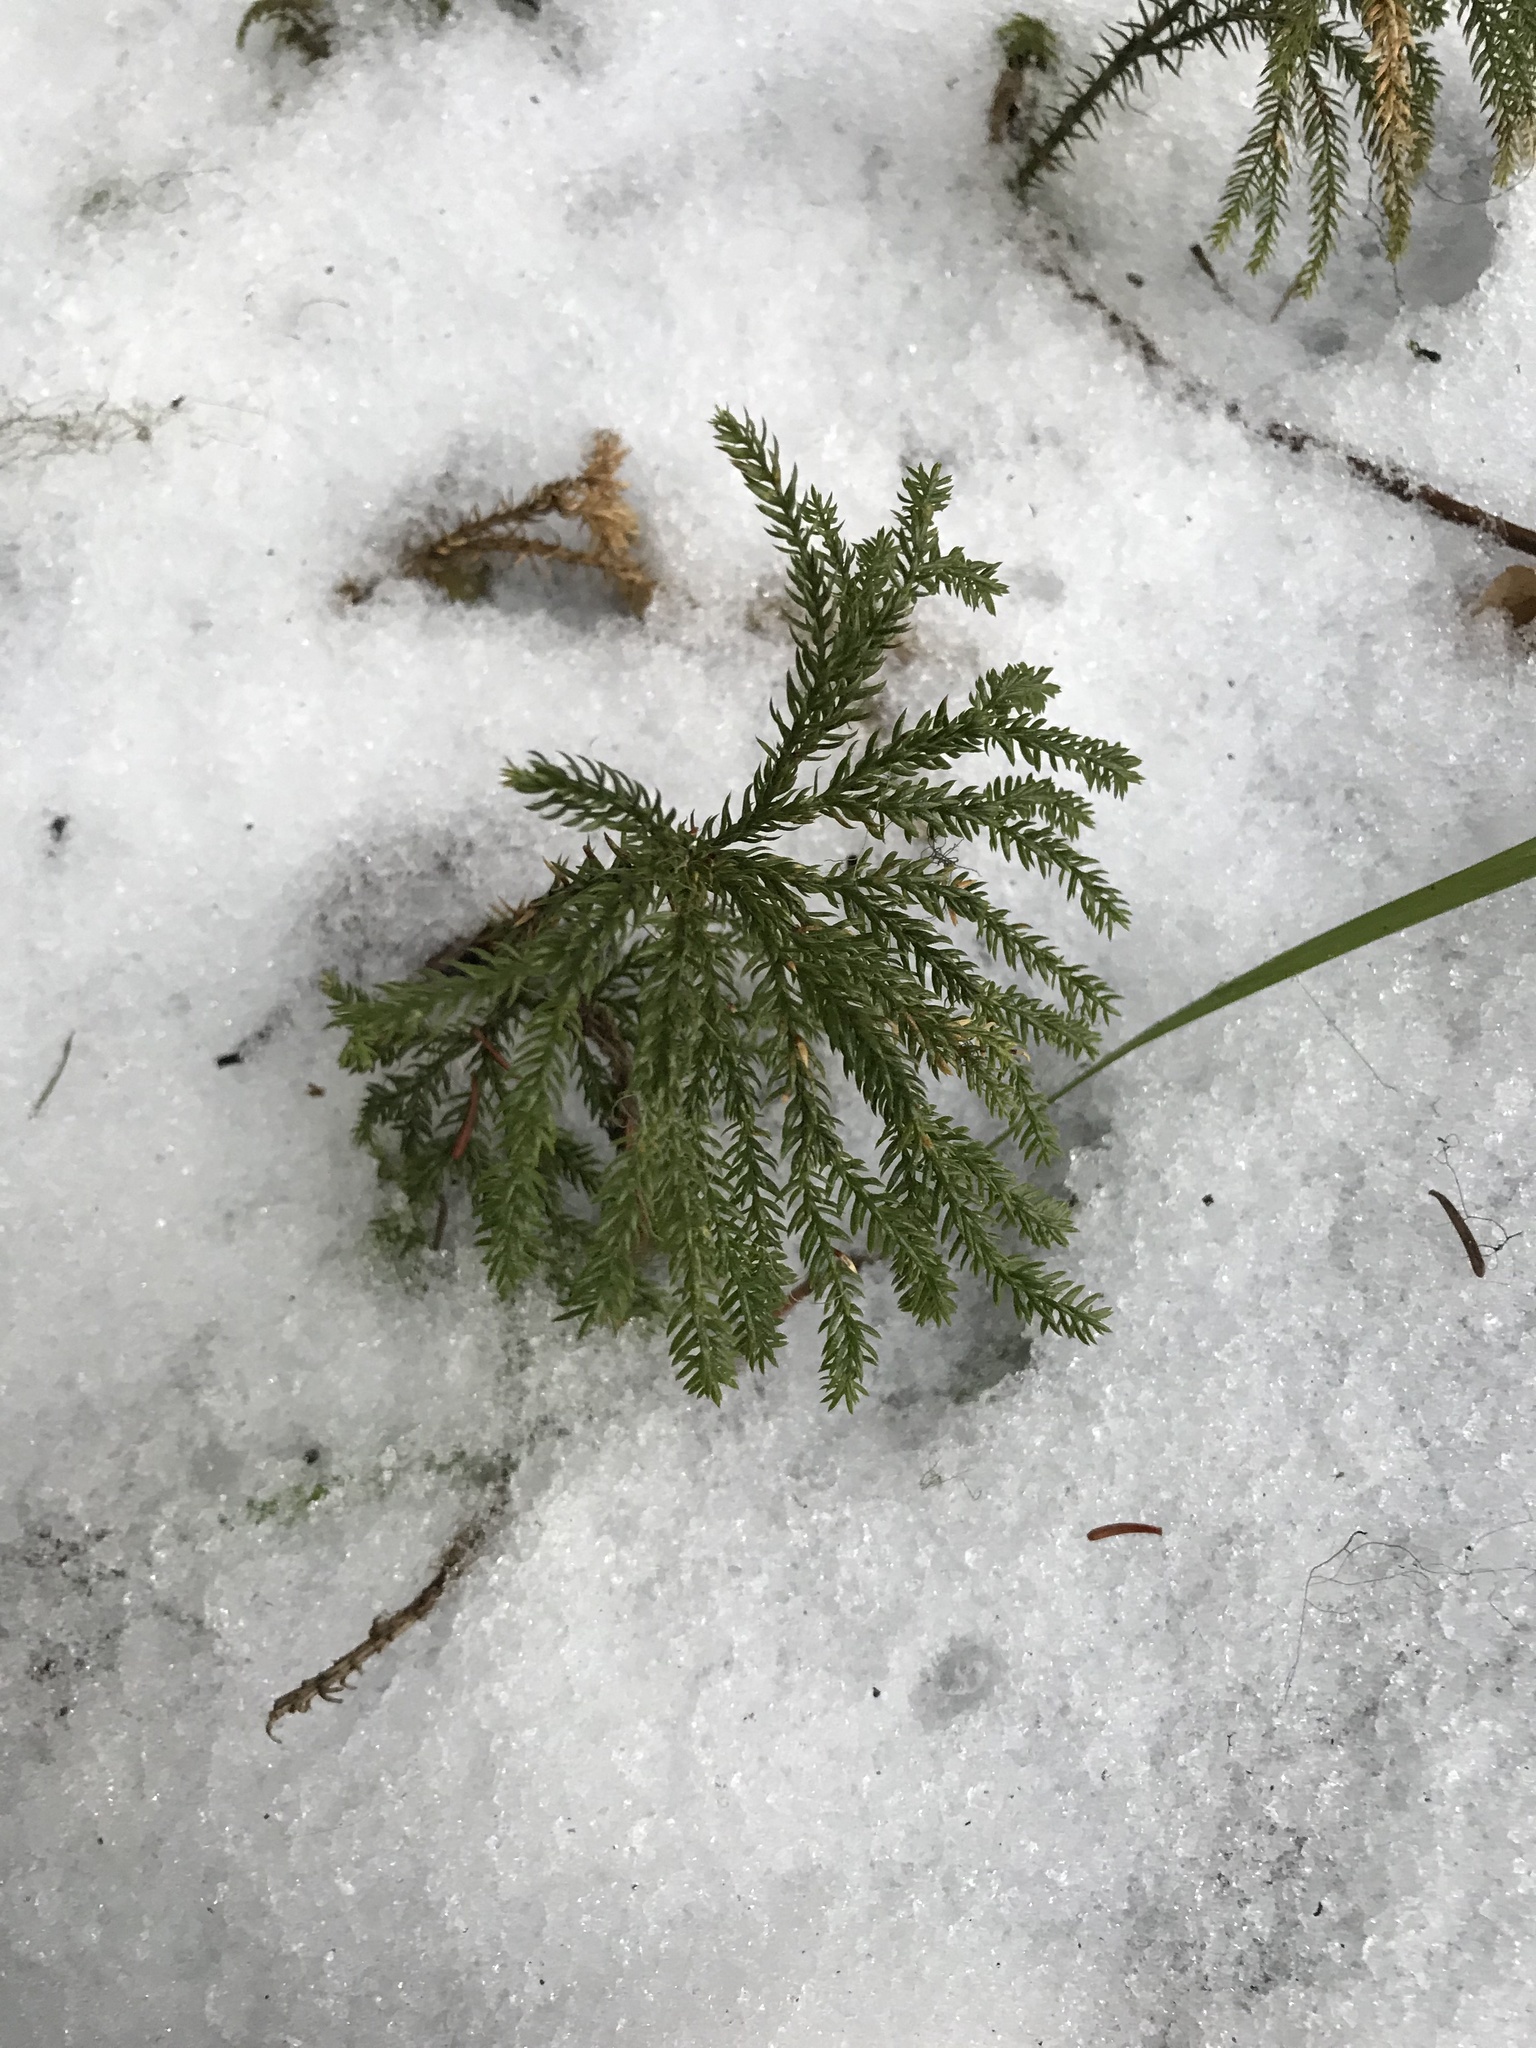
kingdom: Plantae
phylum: Tracheophyta
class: Lycopodiopsida
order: Lycopodiales
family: Lycopodiaceae
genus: Dendrolycopodium
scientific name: Dendrolycopodium dendroideum
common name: Northern tree-clubmoss
